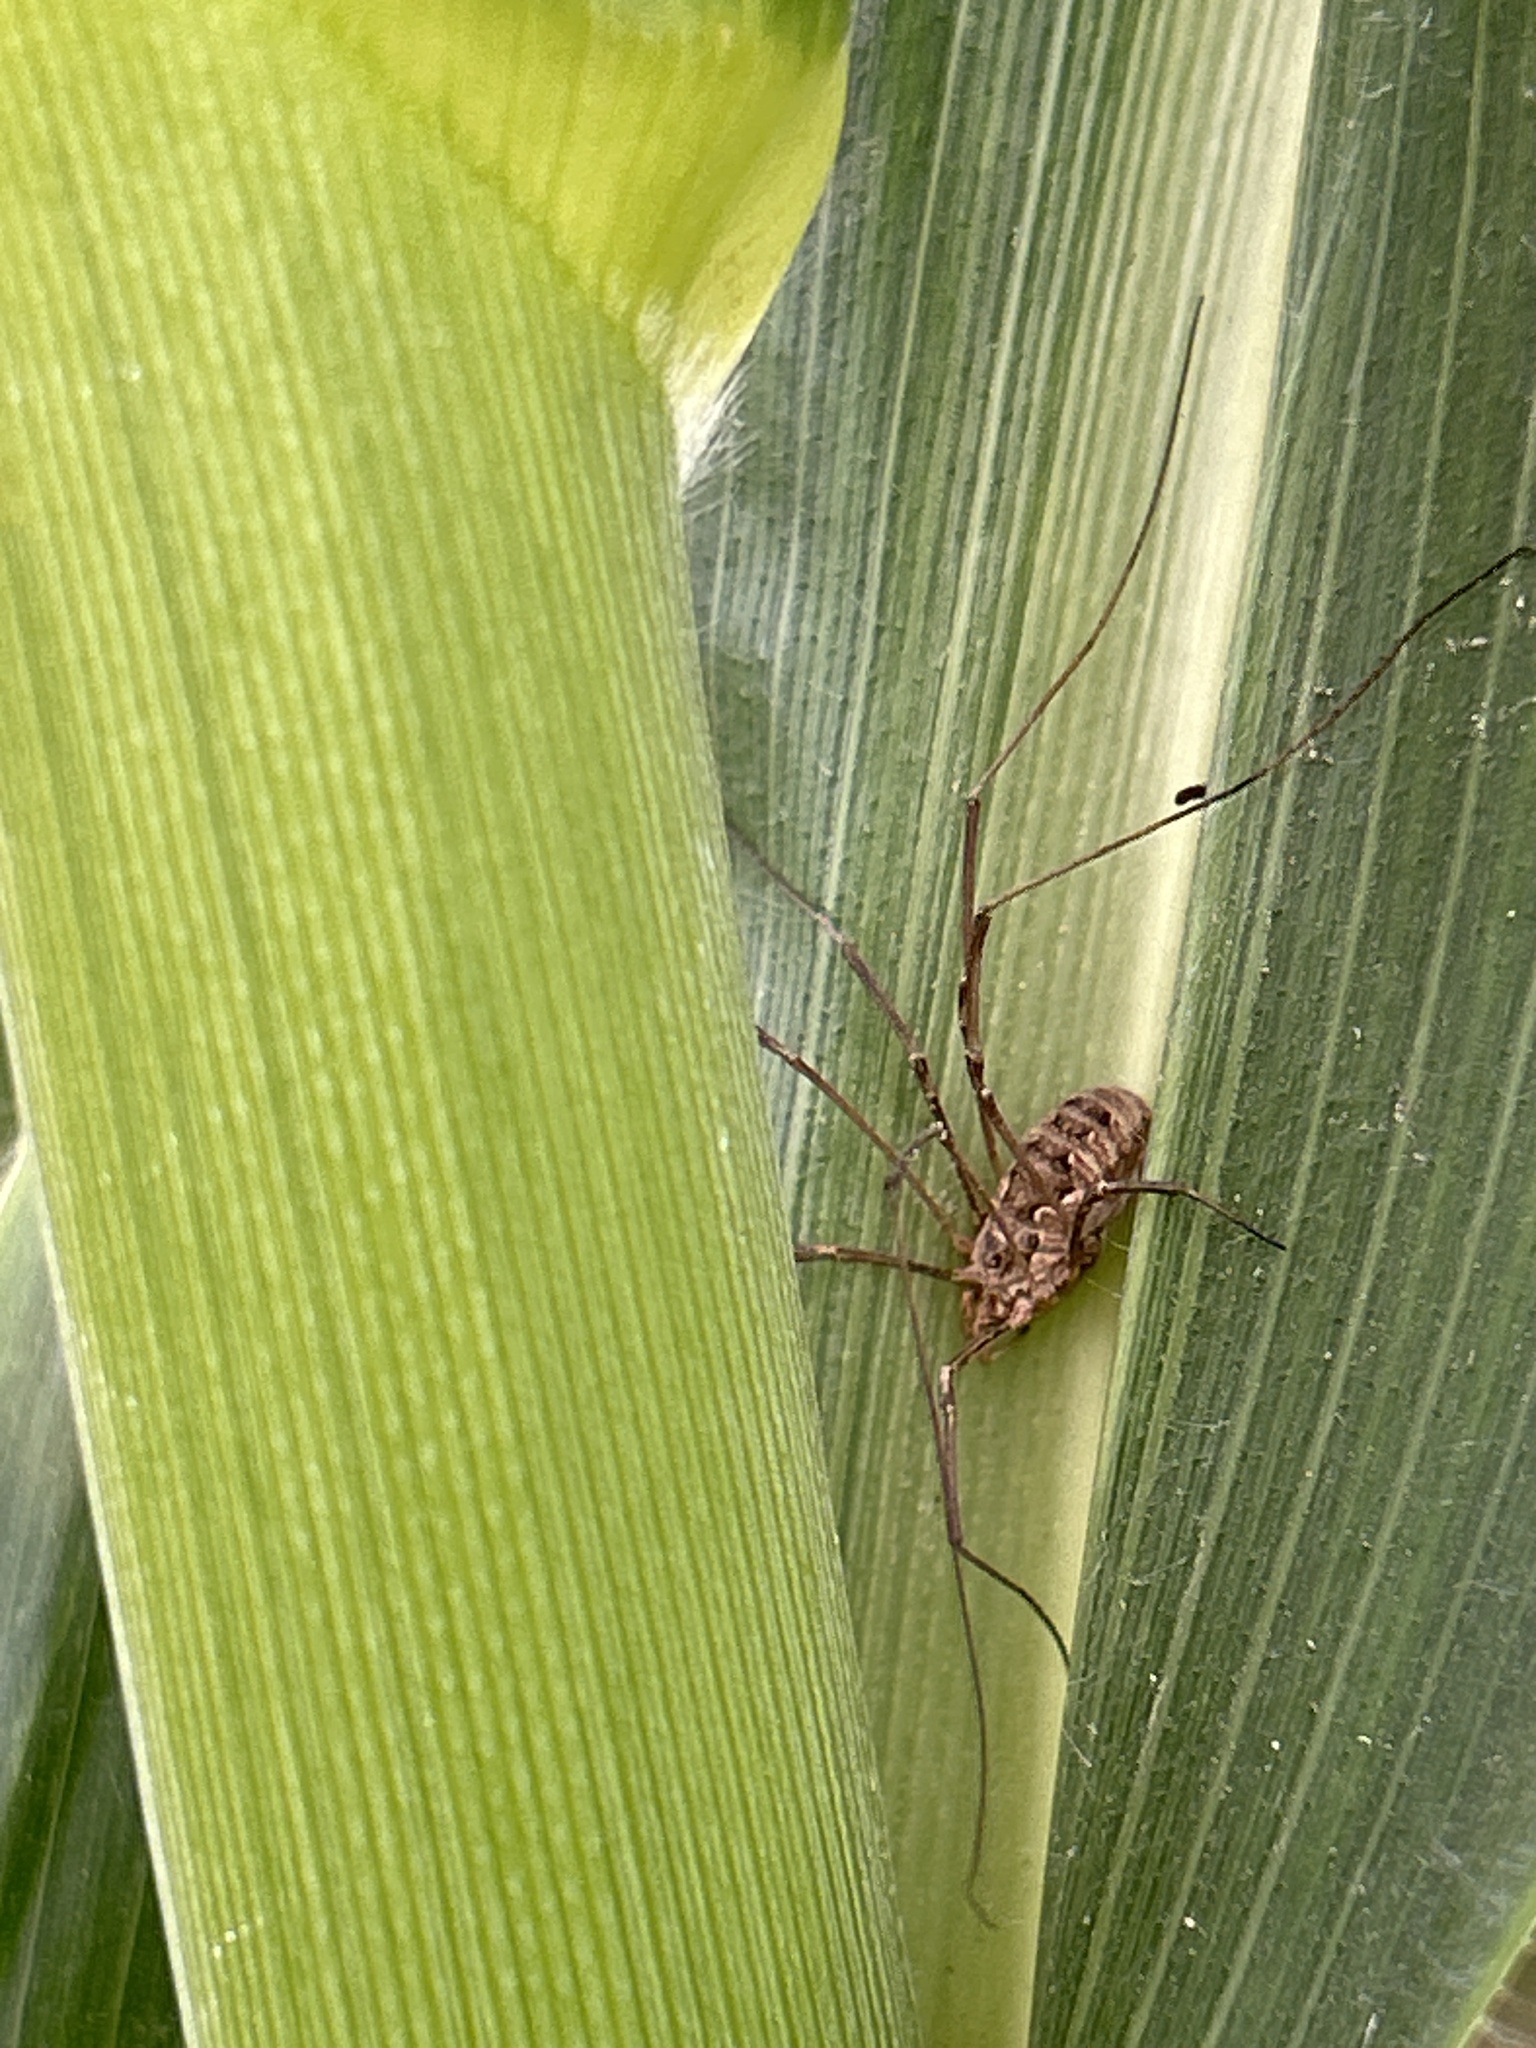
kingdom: Animalia
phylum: Arthropoda
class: Arachnida
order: Opiliones
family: Phalangiidae
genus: Phalangium
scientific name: Phalangium opilio
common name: Daddy longleg
